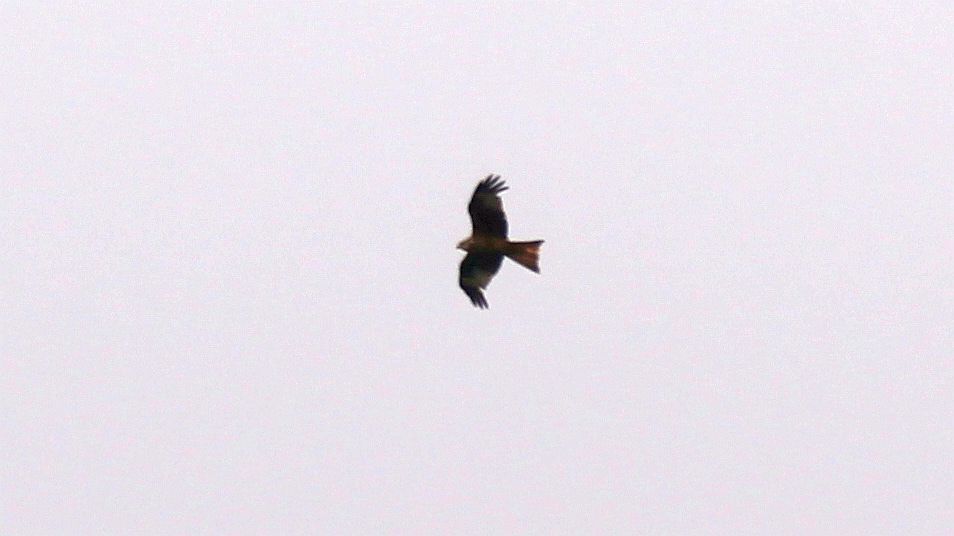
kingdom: Animalia
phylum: Chordata
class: Aves
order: Accipitriformes
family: Accipitridae
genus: Milvus
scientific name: Milvus milvus
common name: Red kite
